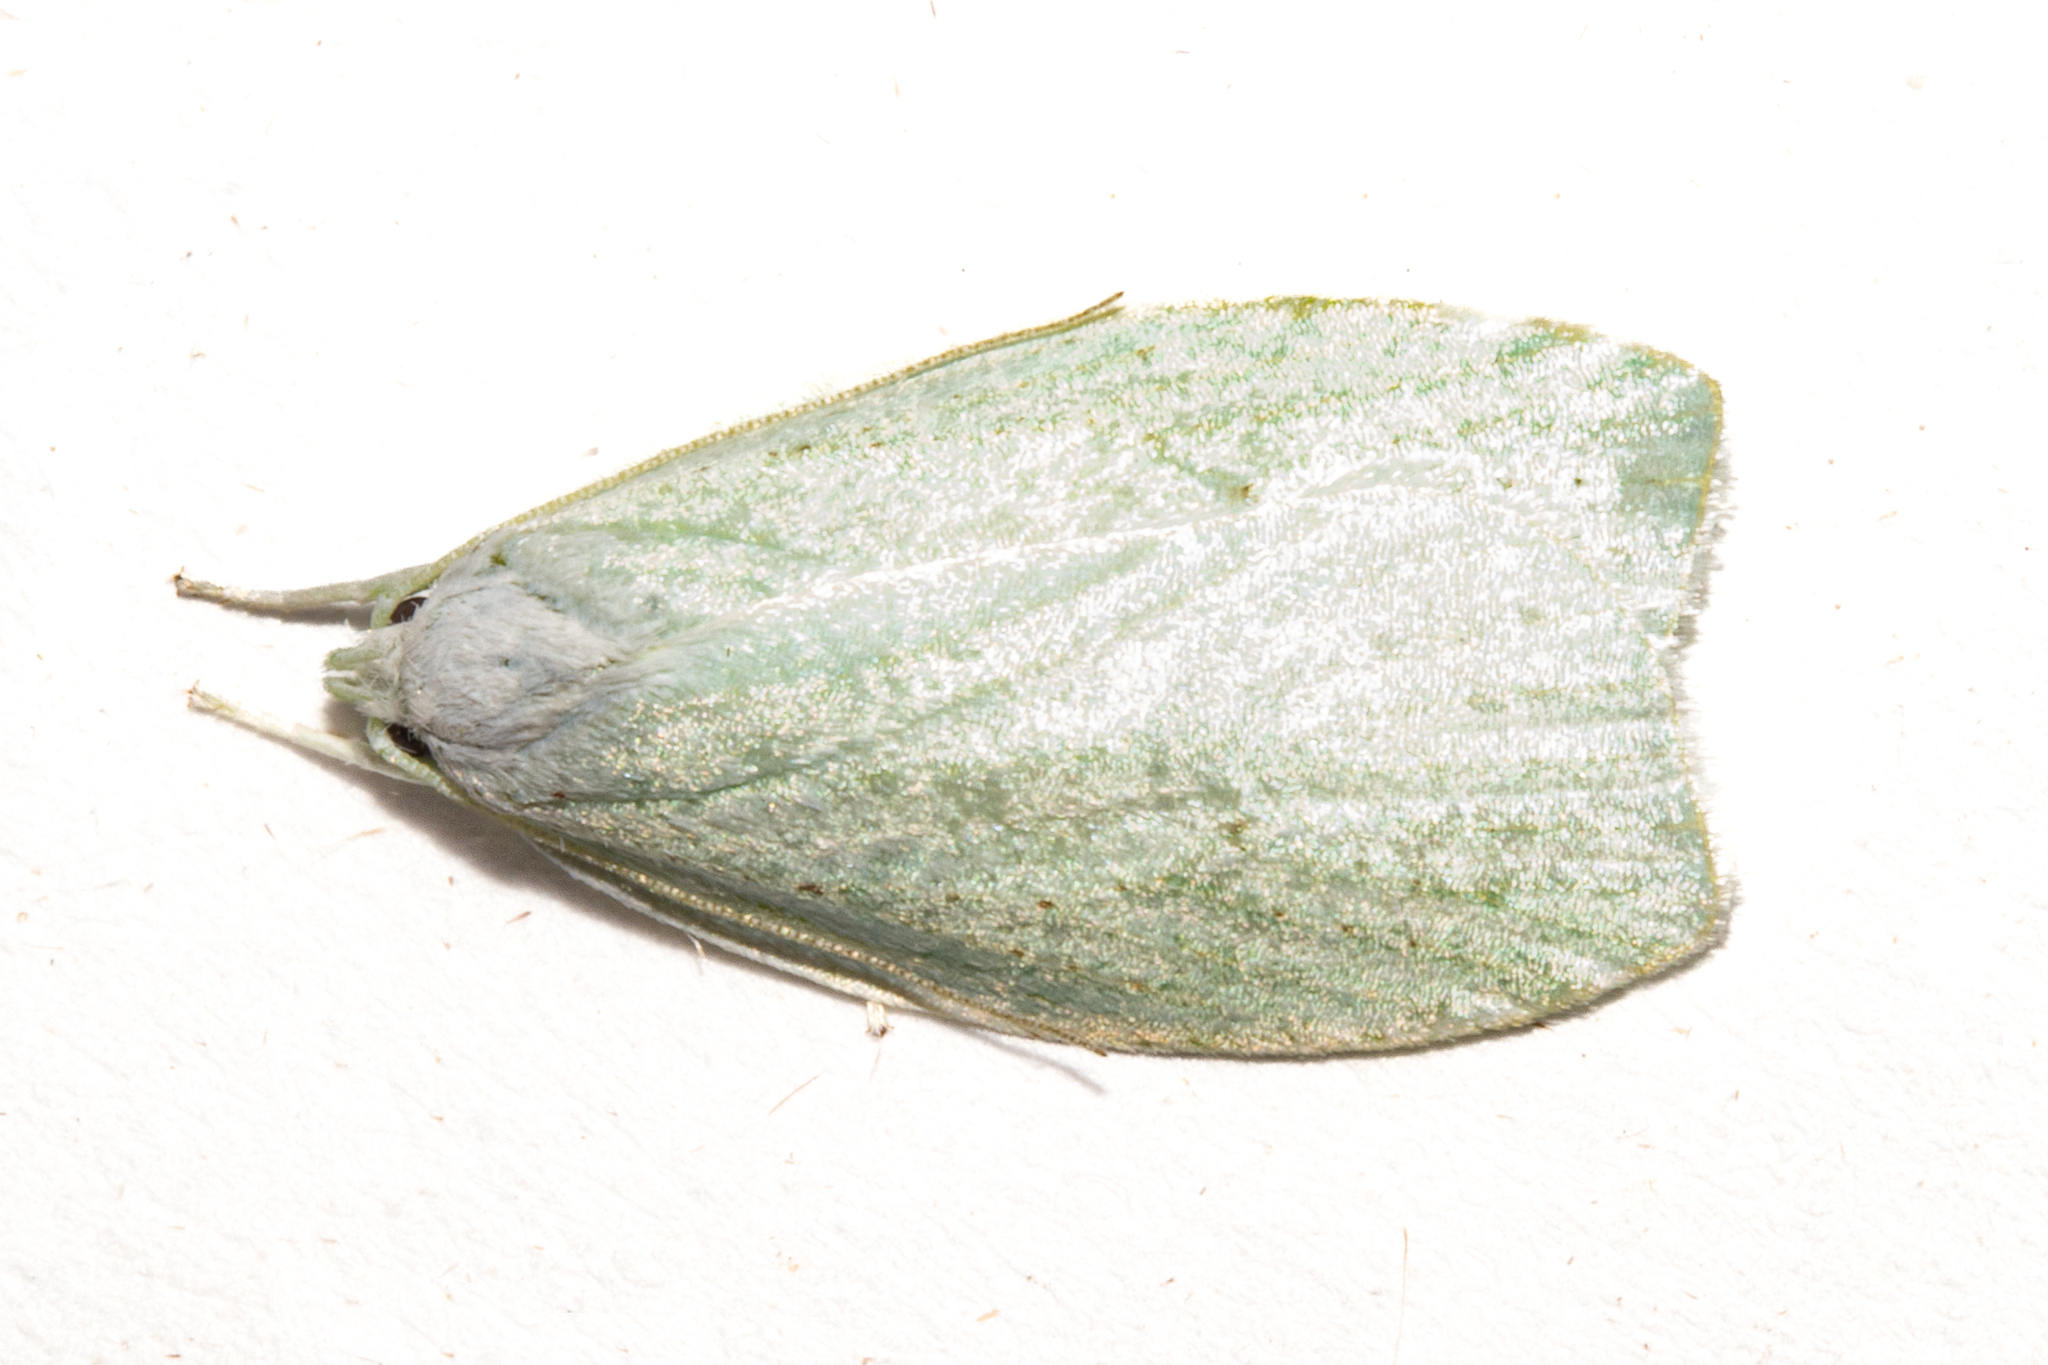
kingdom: Animalia
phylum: Arthropoda
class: Insecta
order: Lepidoptera
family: Oecophoridae
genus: Nymphostola
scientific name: Nymphostola galactina
